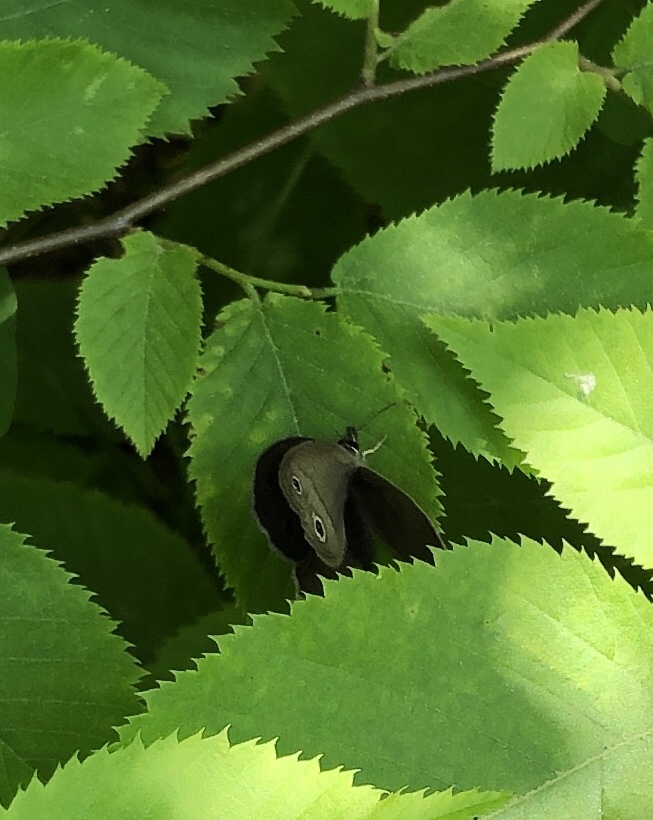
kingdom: Animalia
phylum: Arthropoda
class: Insecta
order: Lepidoptera
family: Nymphalidae
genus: Euptychia
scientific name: Euptychia cymela
